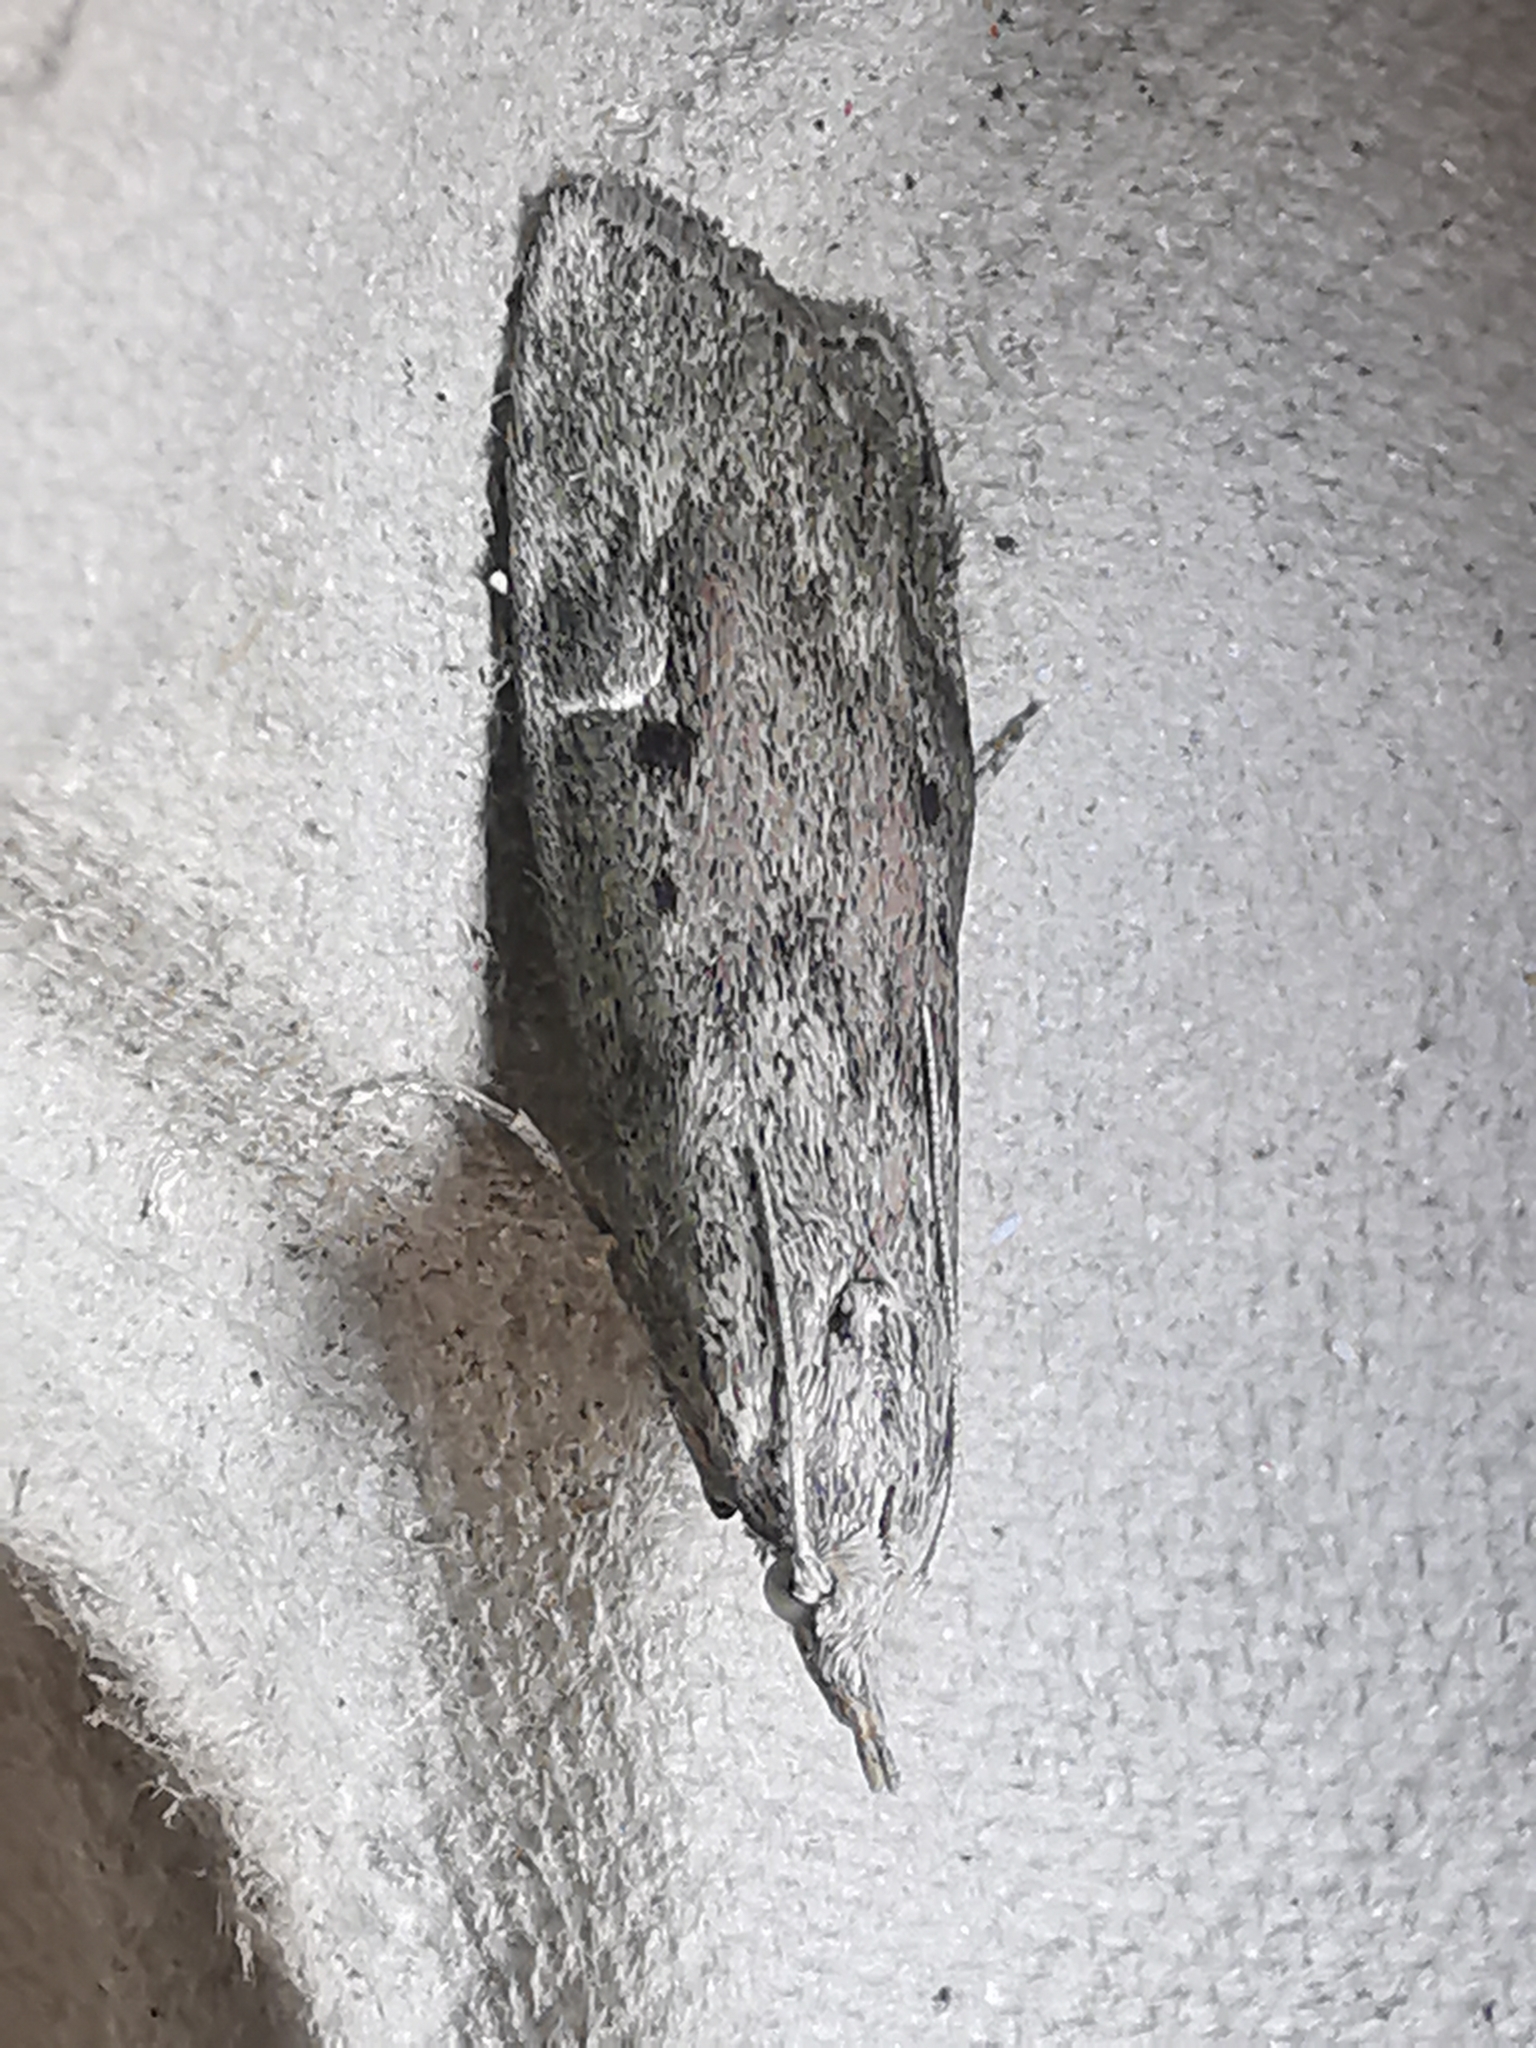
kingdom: Animalia
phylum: Arthropoda
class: Insecta
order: Lepidoptera
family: Pyralidae
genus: Aphomia
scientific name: Aphomia sociella
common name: Bee moth
